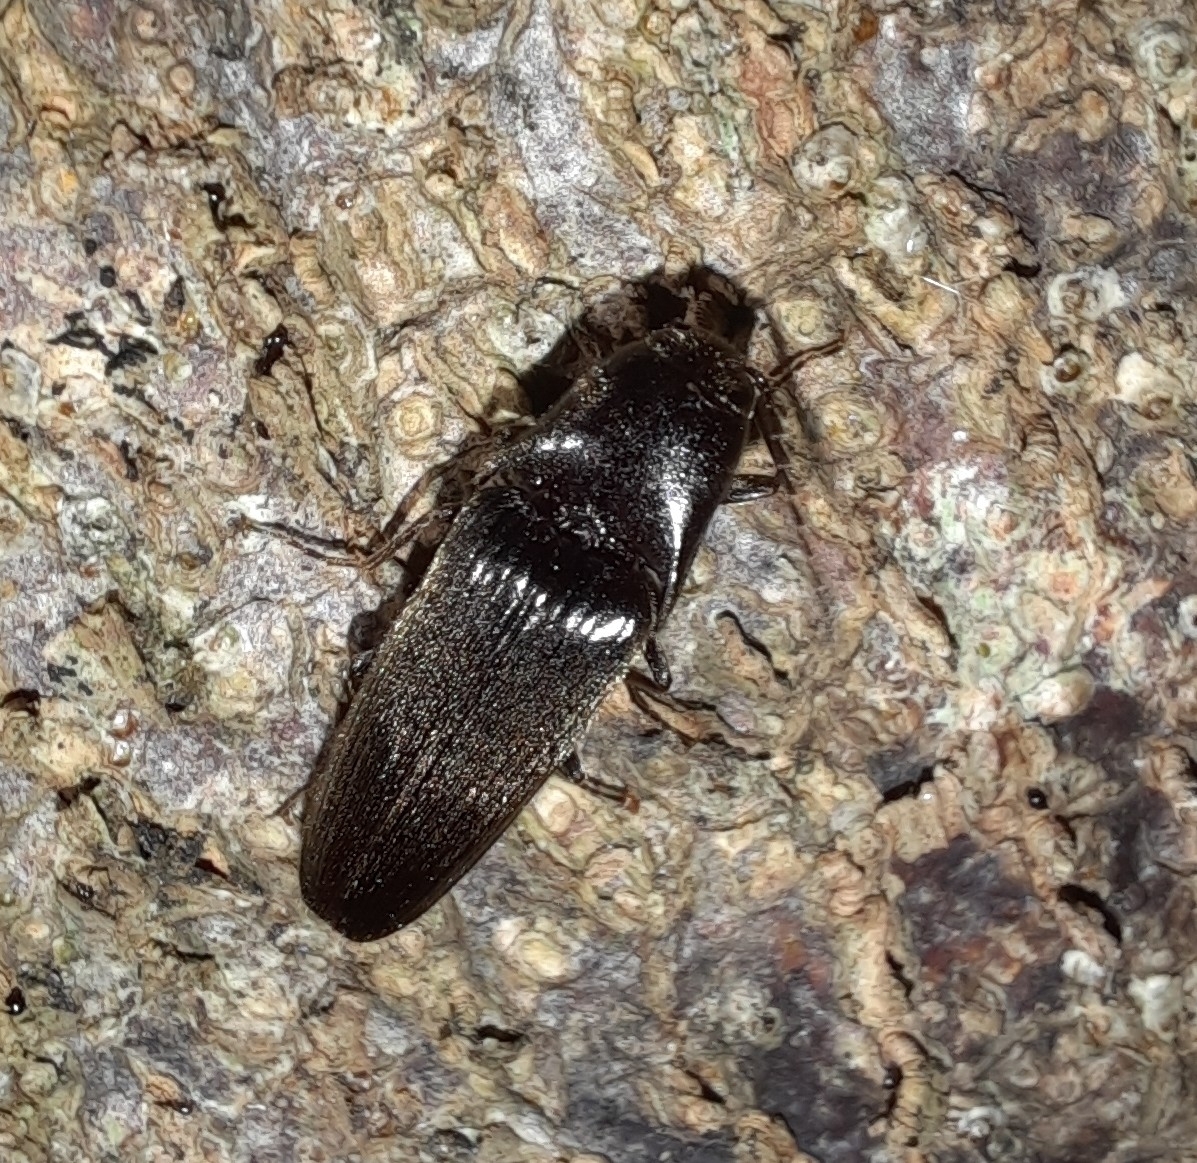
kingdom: Animalia
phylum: Arthropoda
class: Insecta
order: Coleoptera
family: Elateridae
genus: Ochosternus
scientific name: Ochosternus zealandicus
